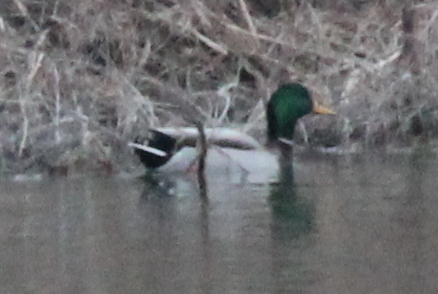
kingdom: Animalia
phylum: Chordata
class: Aves
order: Anseriformes
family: Anatidae
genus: Anas
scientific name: Anas platyrhynchos
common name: Mallard
